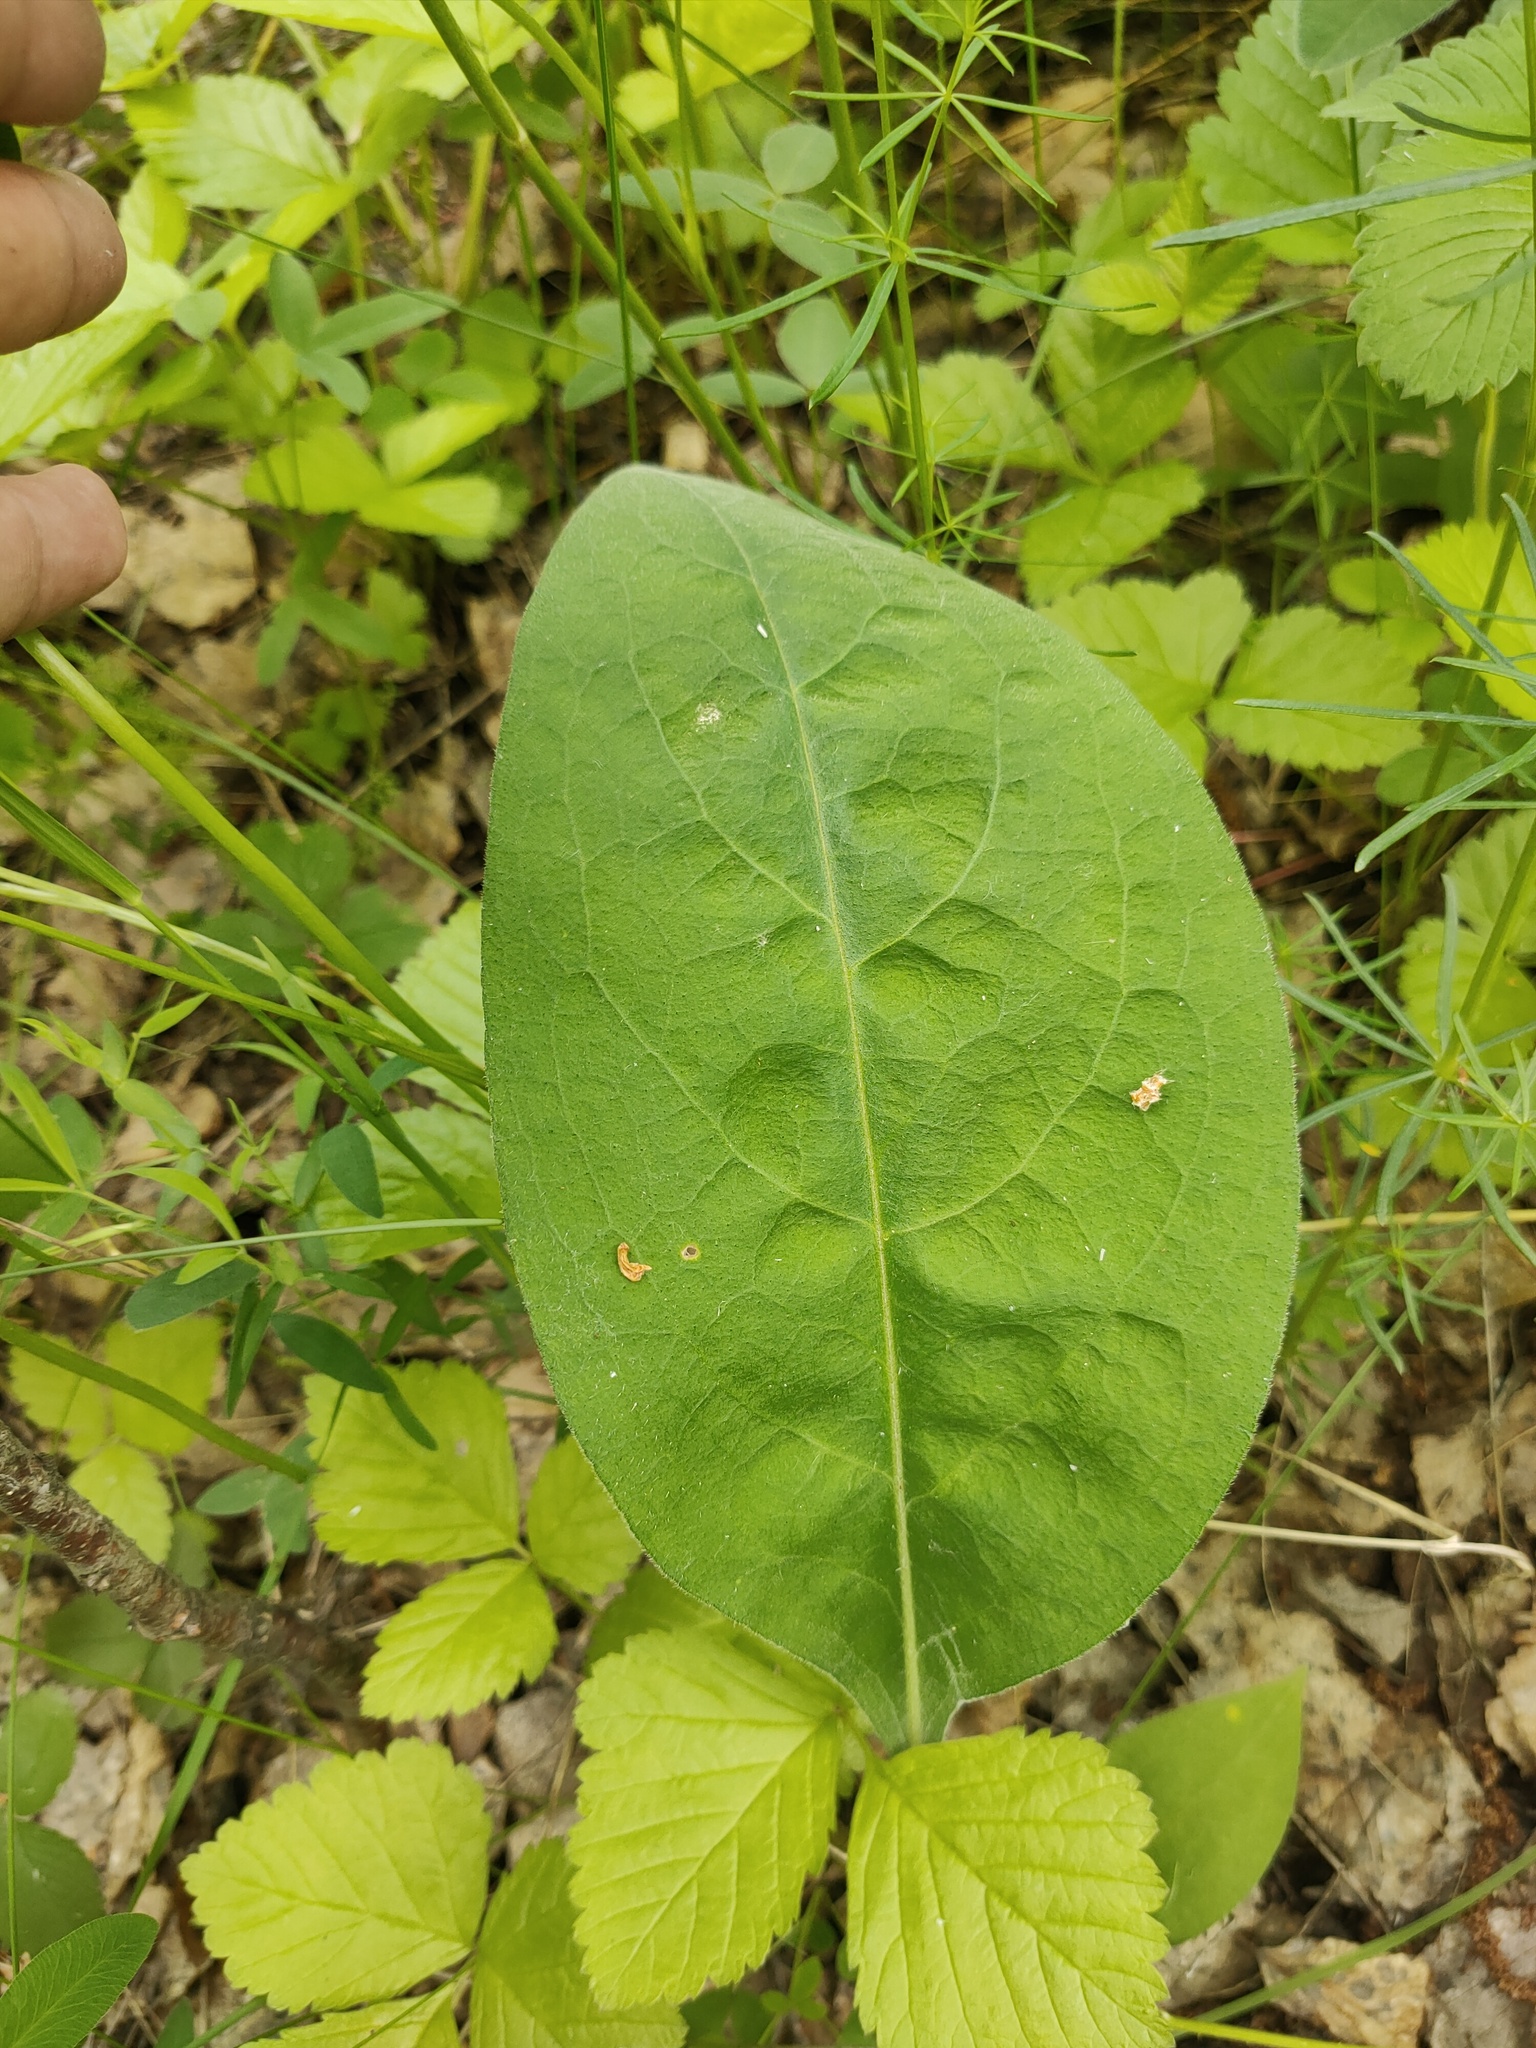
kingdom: Plantae
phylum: Tracheophyta
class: Magnoliopsida
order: Boraginales
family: Boraginaceae
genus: Pulmonaria
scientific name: Pulmonaria mollis
